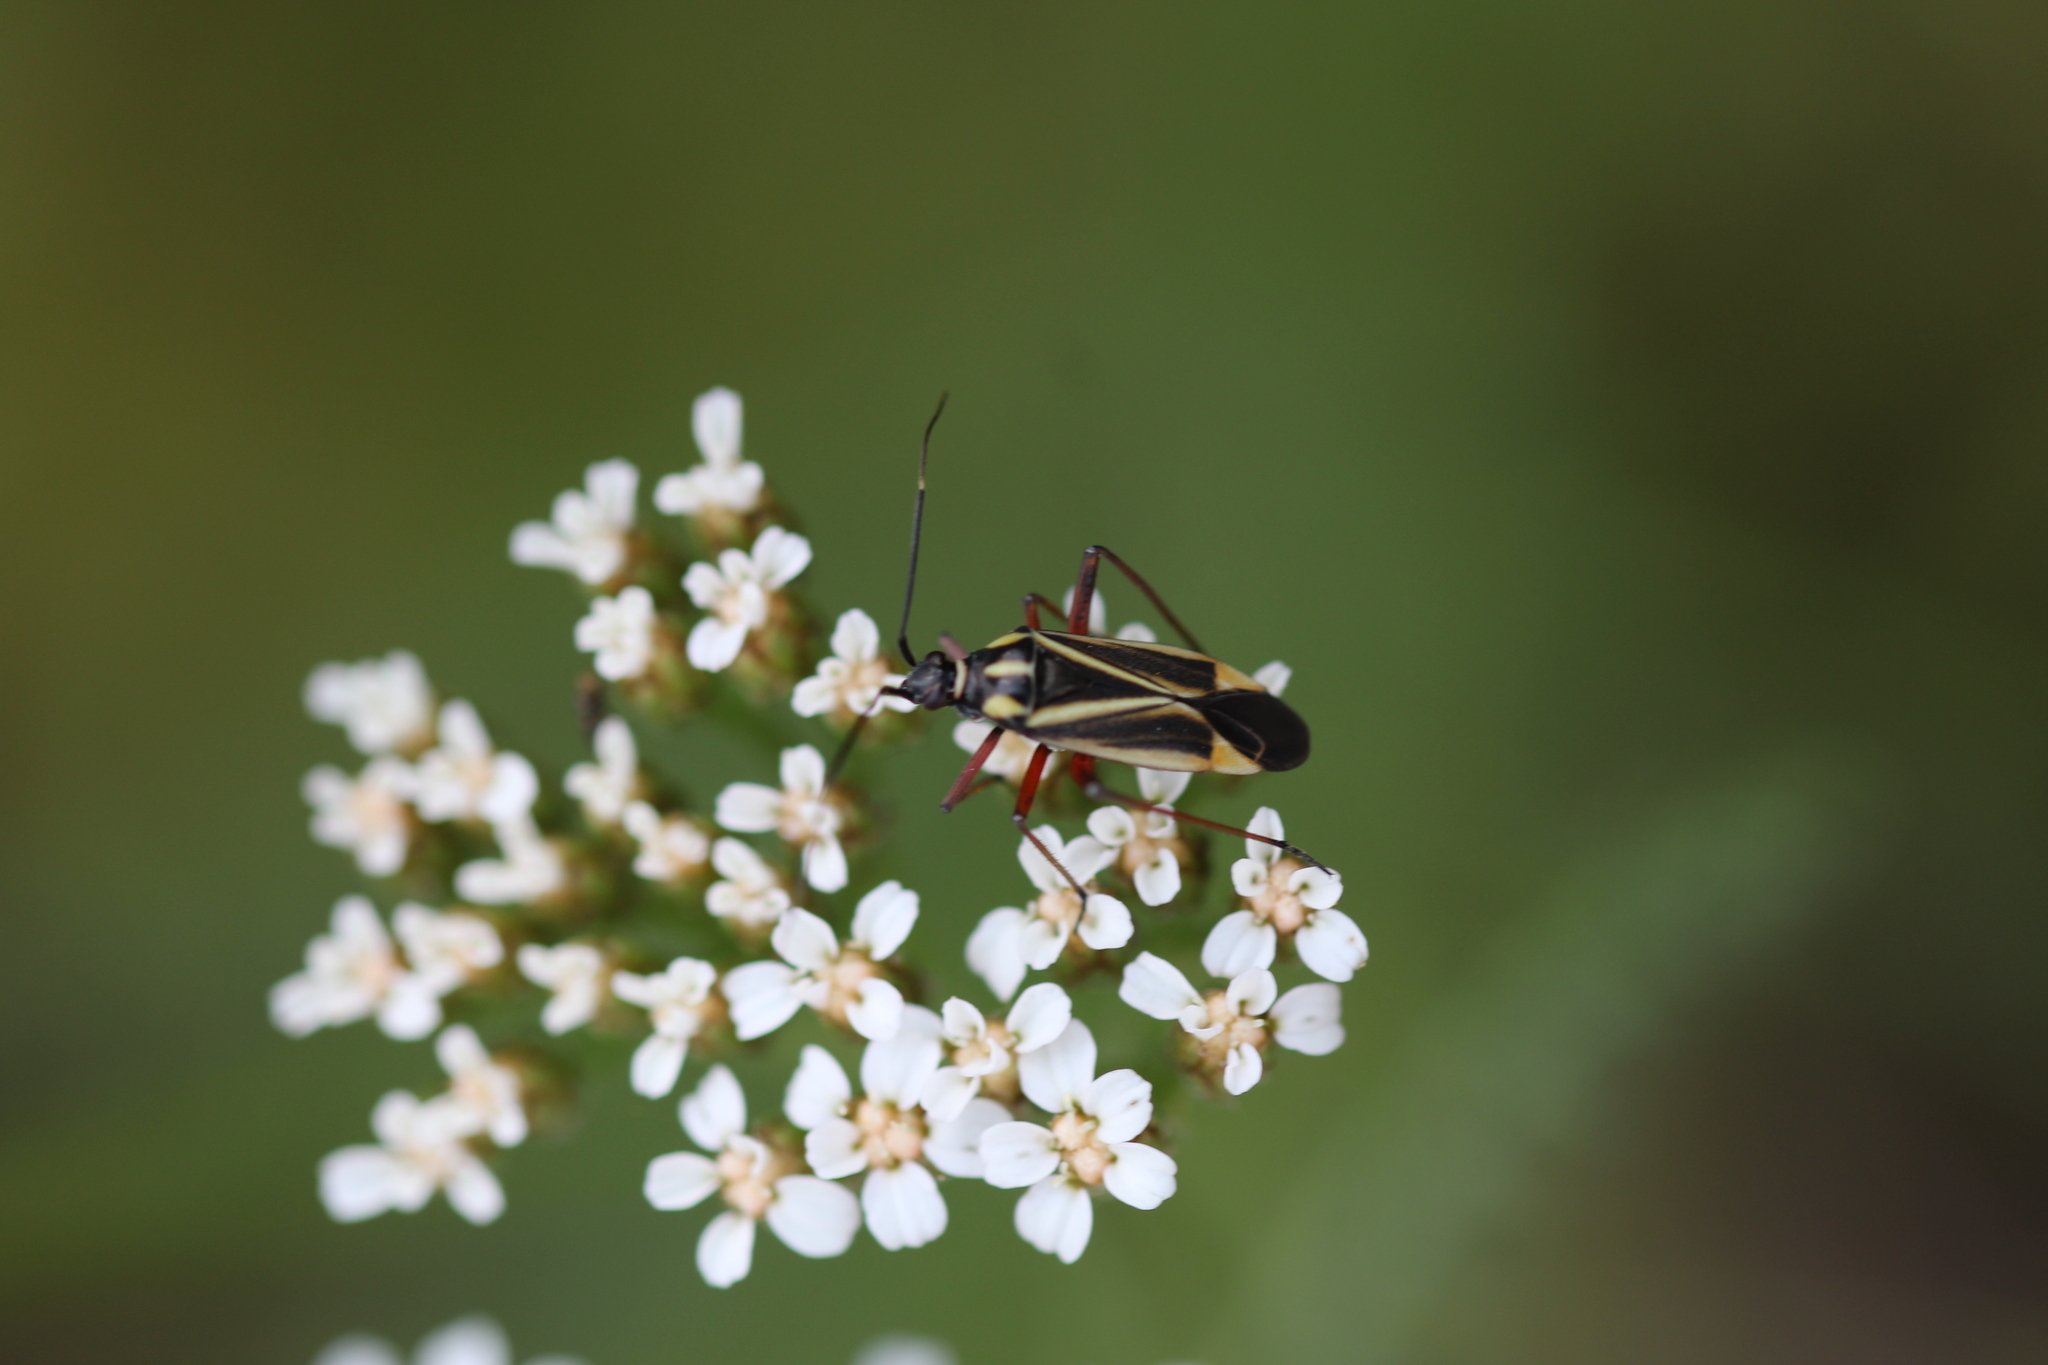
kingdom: Animalia
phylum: Arthropoda
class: Insecta
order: Hemiptera
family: Miridae
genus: Hadrodemus
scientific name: Hadrodemus m-flavum
